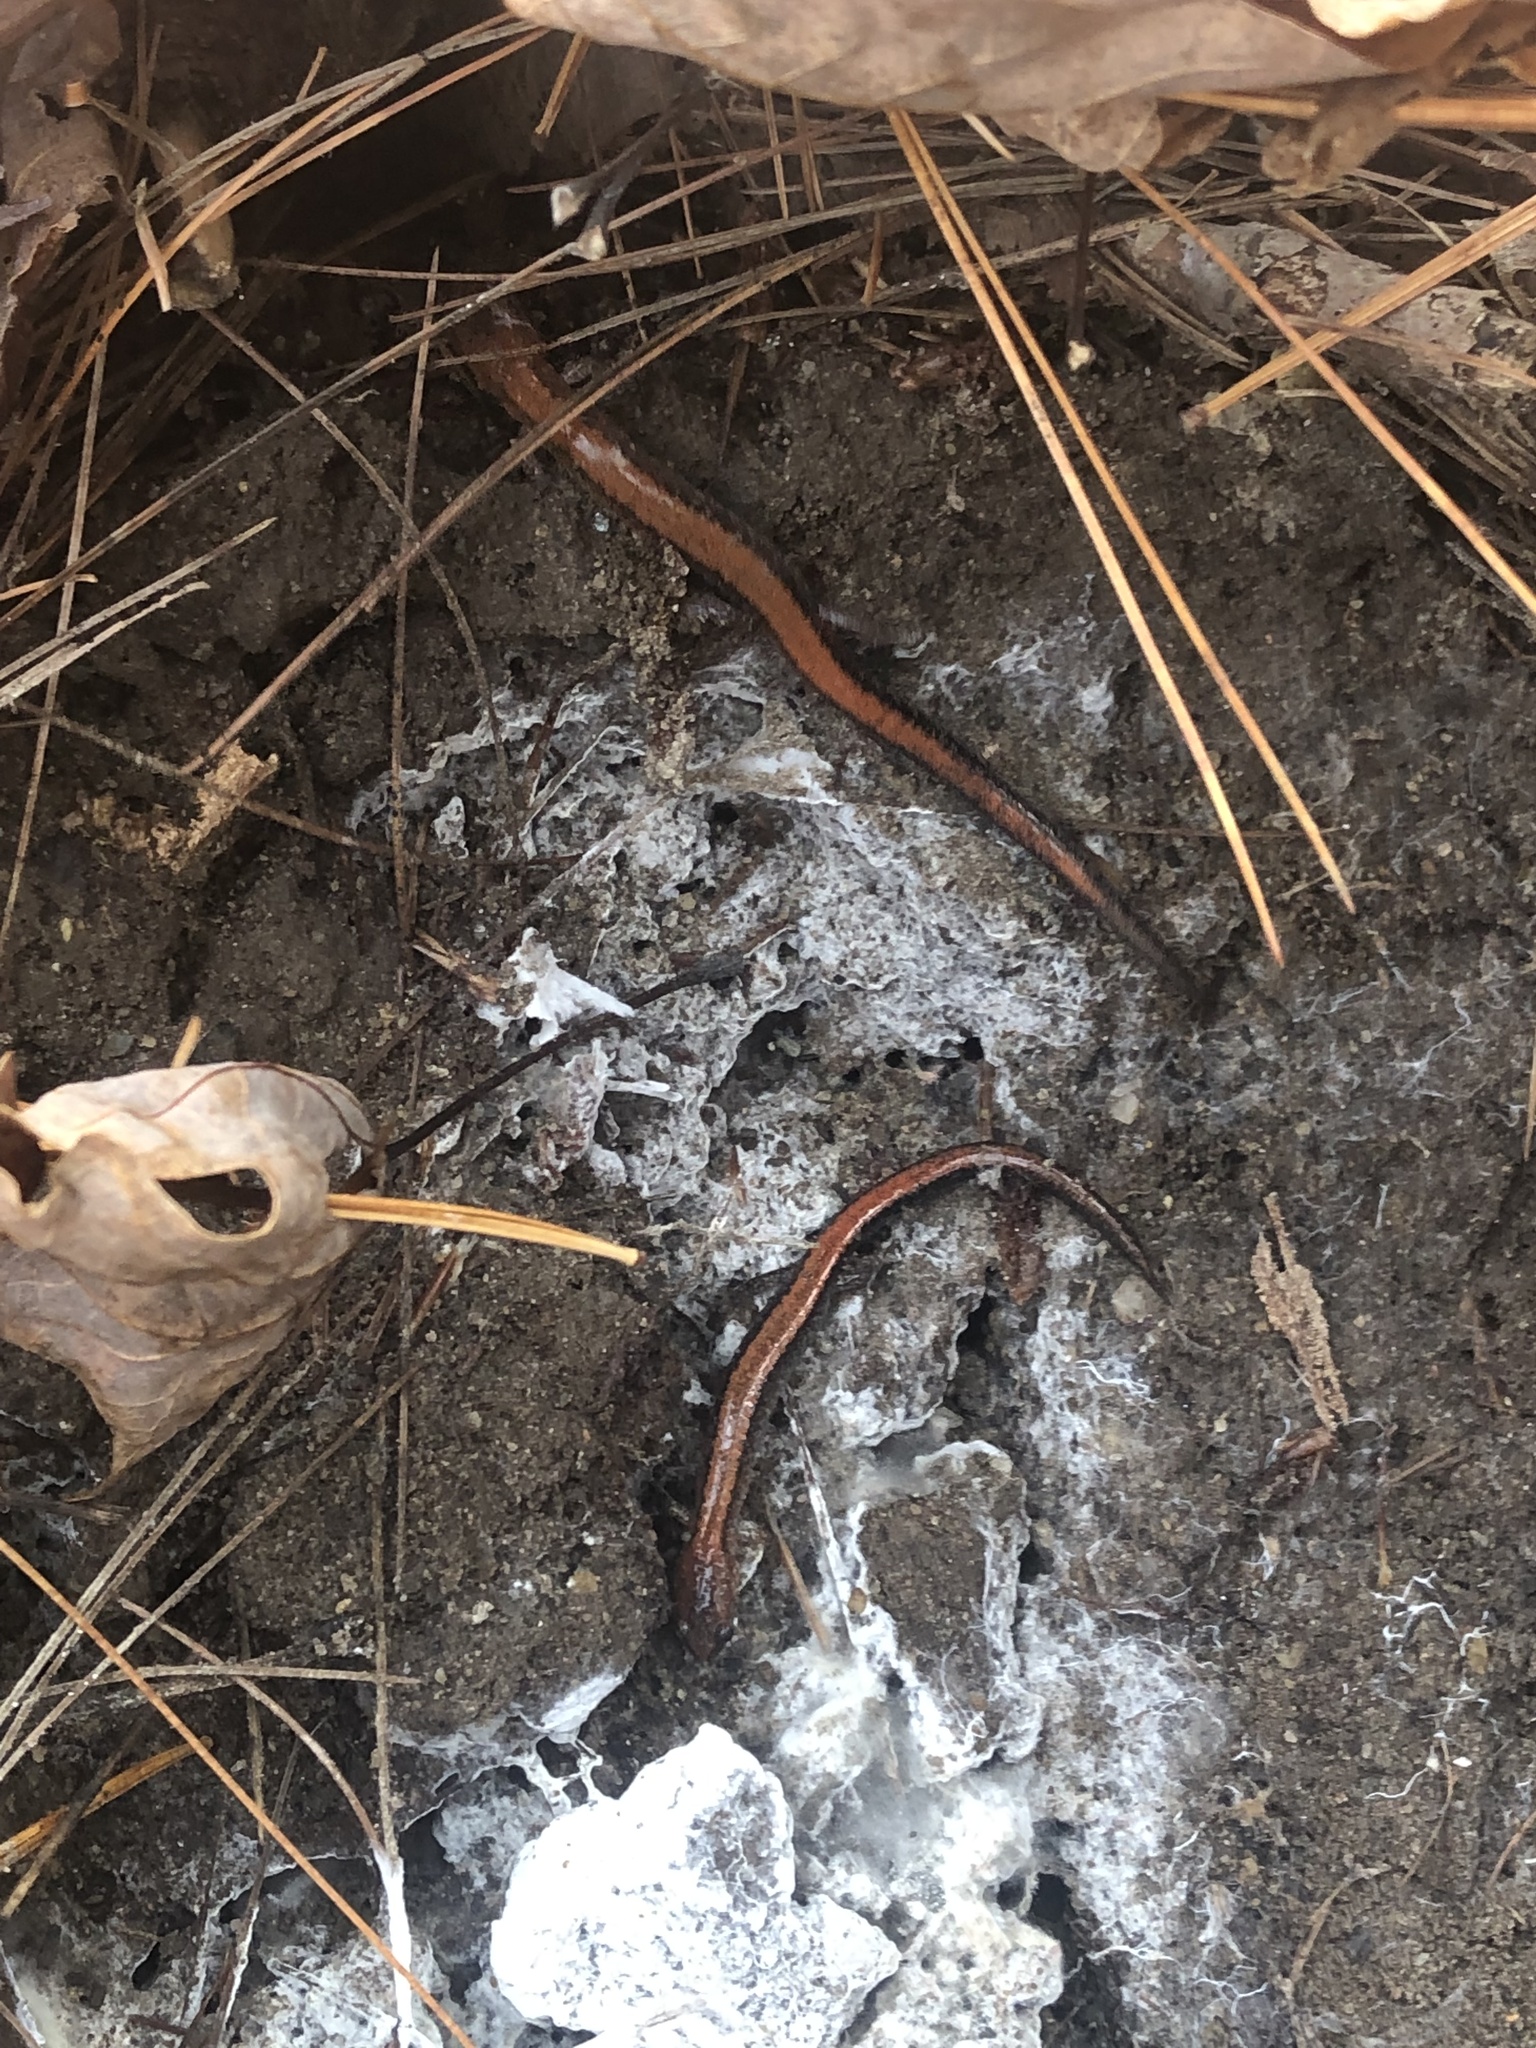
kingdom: Animalia
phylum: Chordata
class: Amphibia
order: Caudata
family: Plethodontidae
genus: Plethodon
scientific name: Plethodon cinereus
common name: Redback salamander
